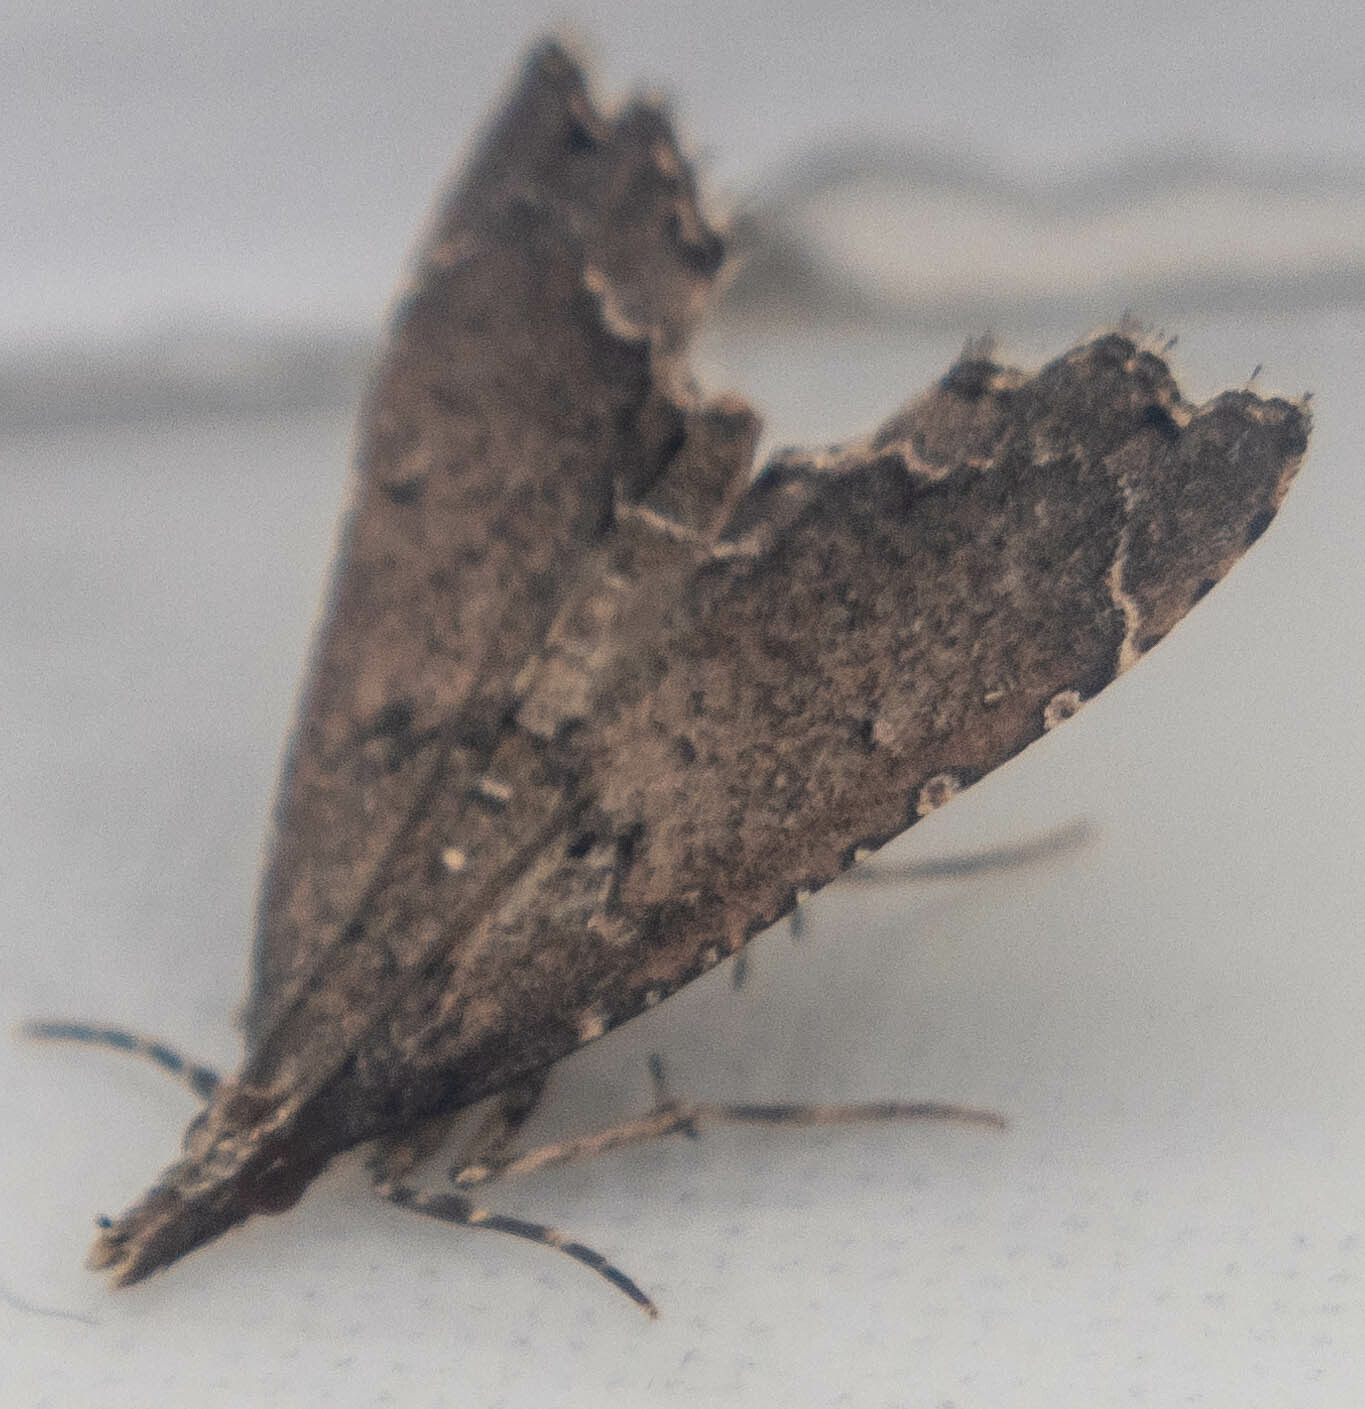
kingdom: Animalia
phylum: Arthropoda
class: Insecta
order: Lepidoptera
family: Crambidae
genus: Diplopseustis
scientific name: Diplopseustis perieresalis
